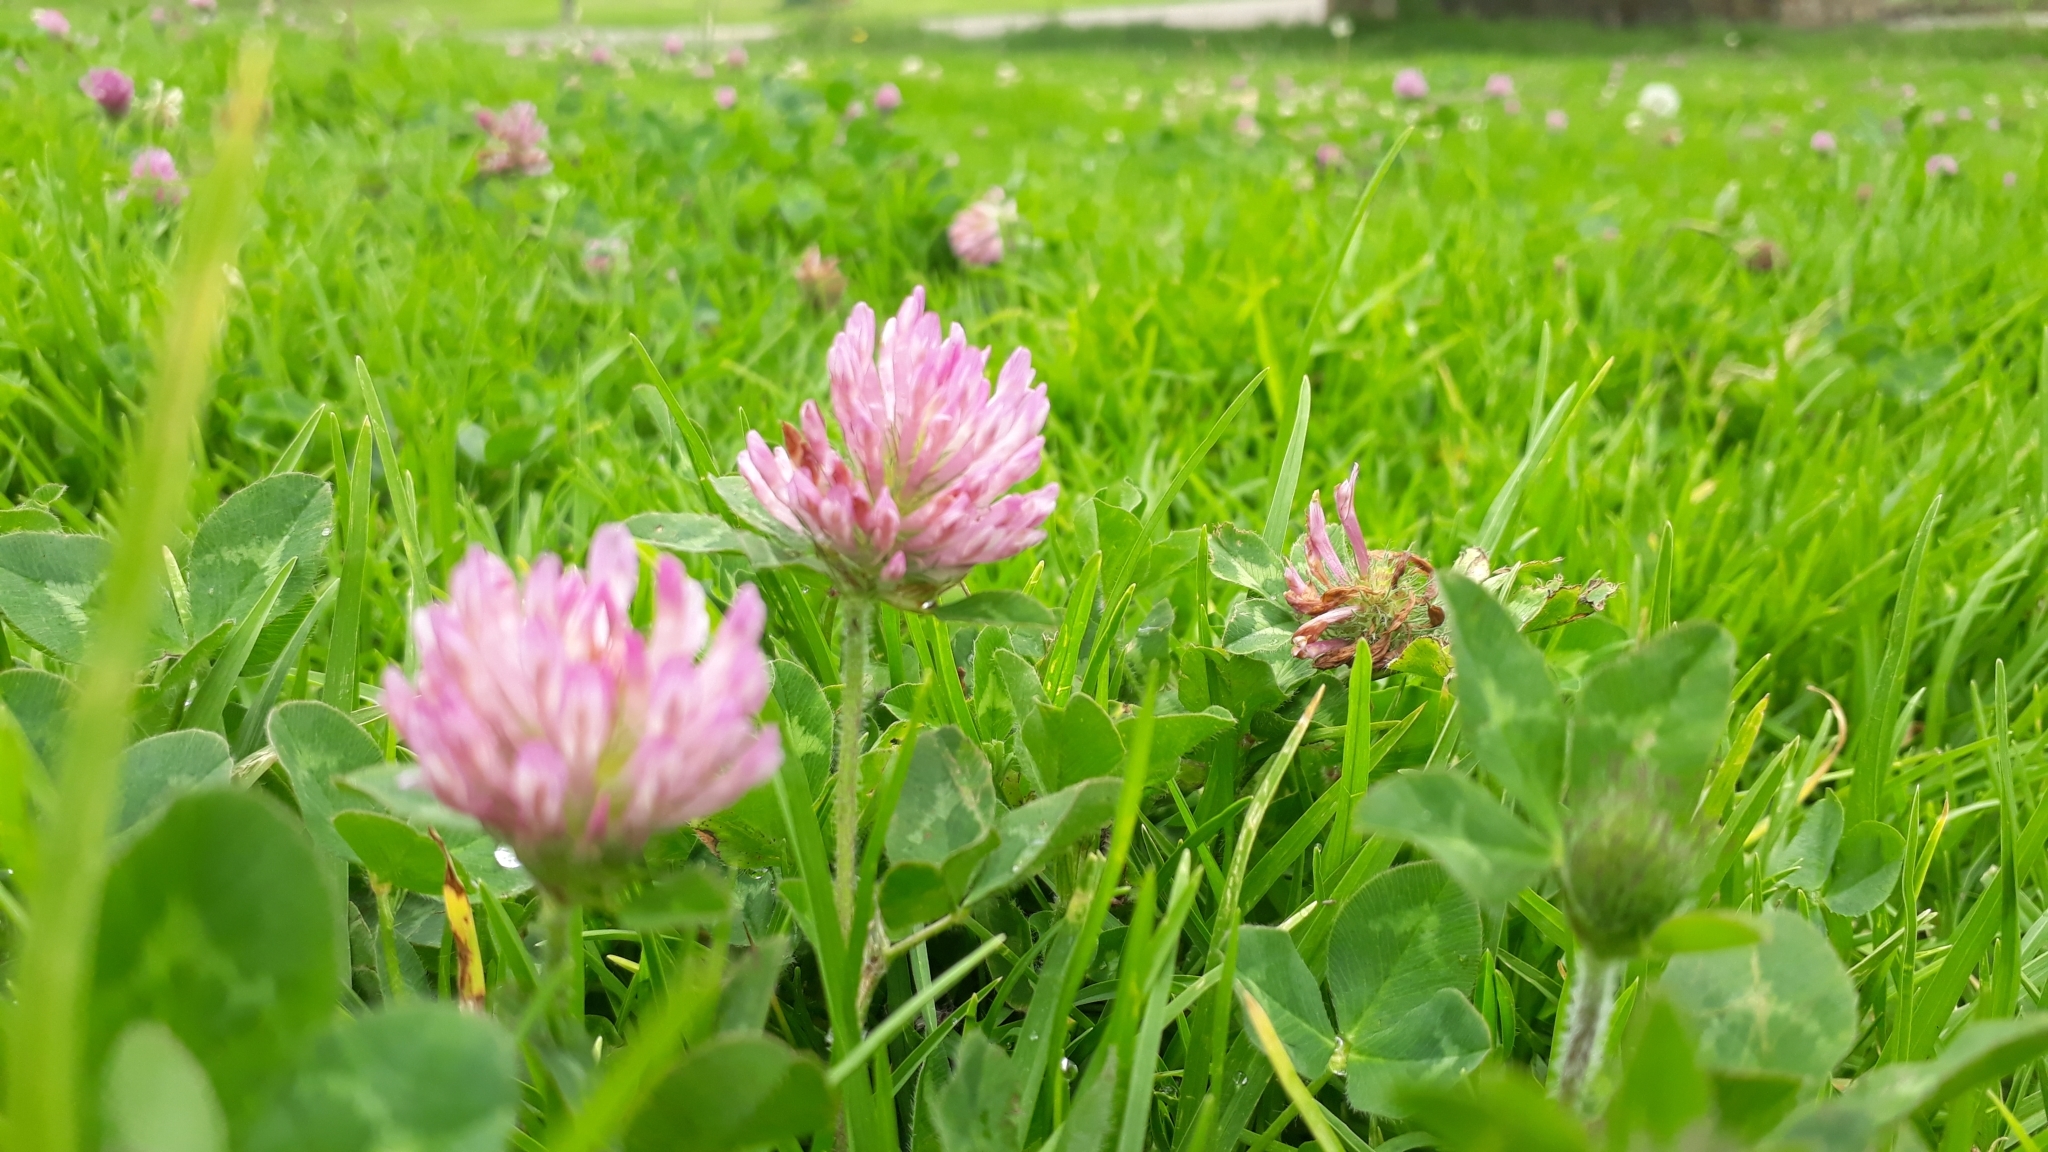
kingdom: Plantae
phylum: Tracheophyta
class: Magnoliopsida
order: Fabales
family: Fabaceae
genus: Trifolium
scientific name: Trifolium pratense
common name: Red clover
